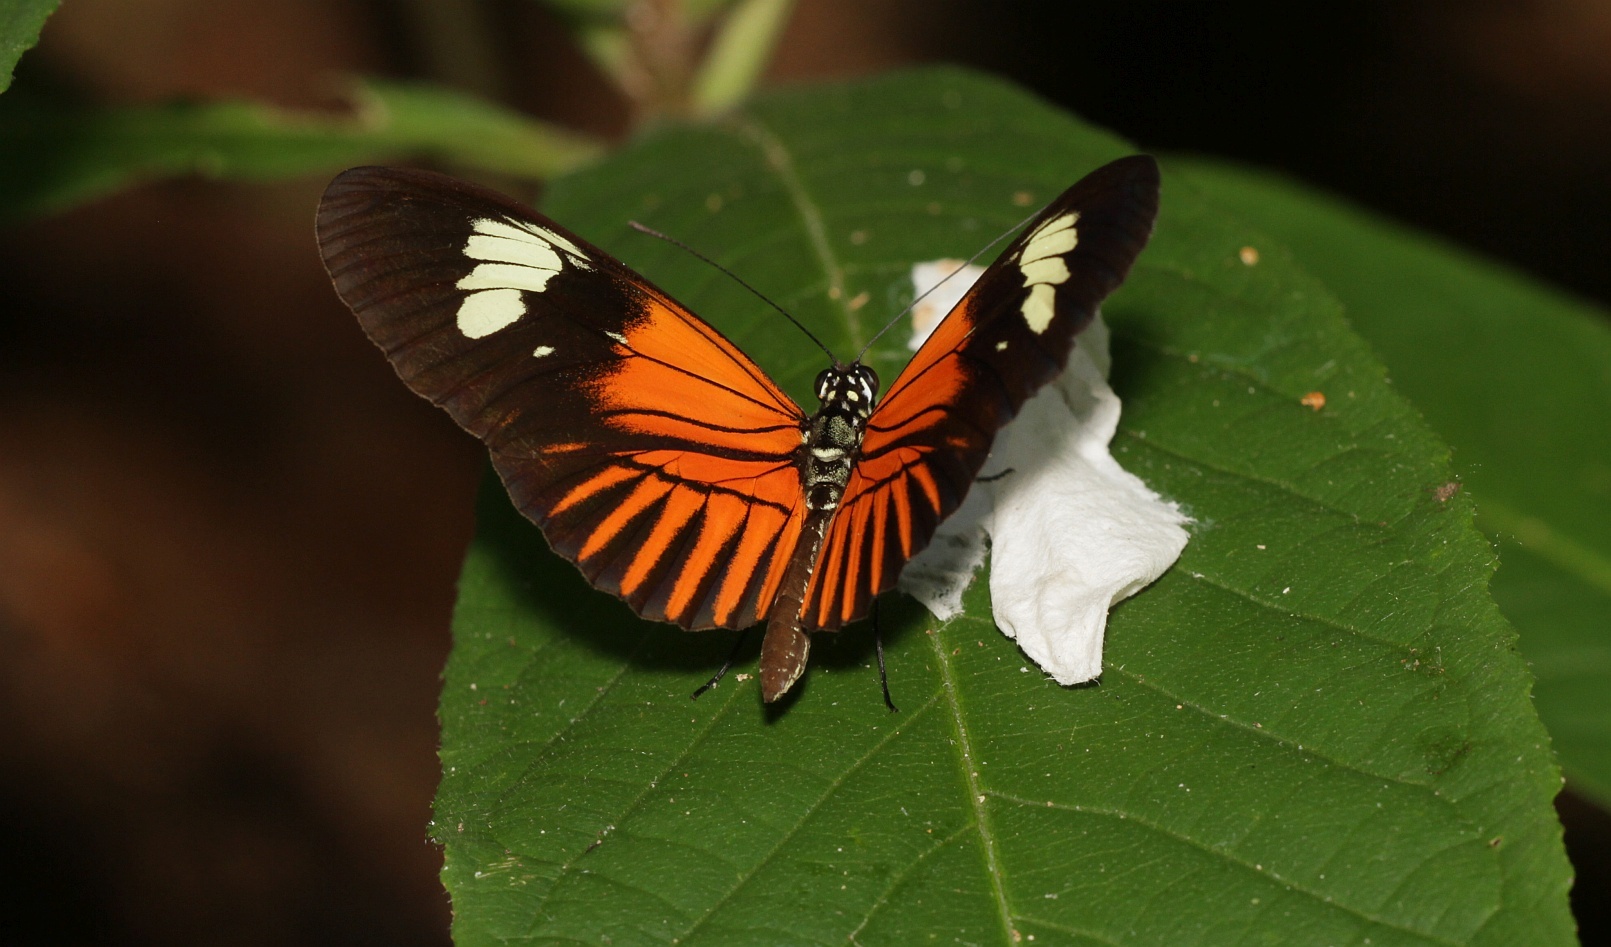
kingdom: Animalia
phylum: Arthropoda
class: Insecta
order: Lepidoptera
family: Nymphalidae
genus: Heliconius
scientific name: Heliconius melpomene
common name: Postman
